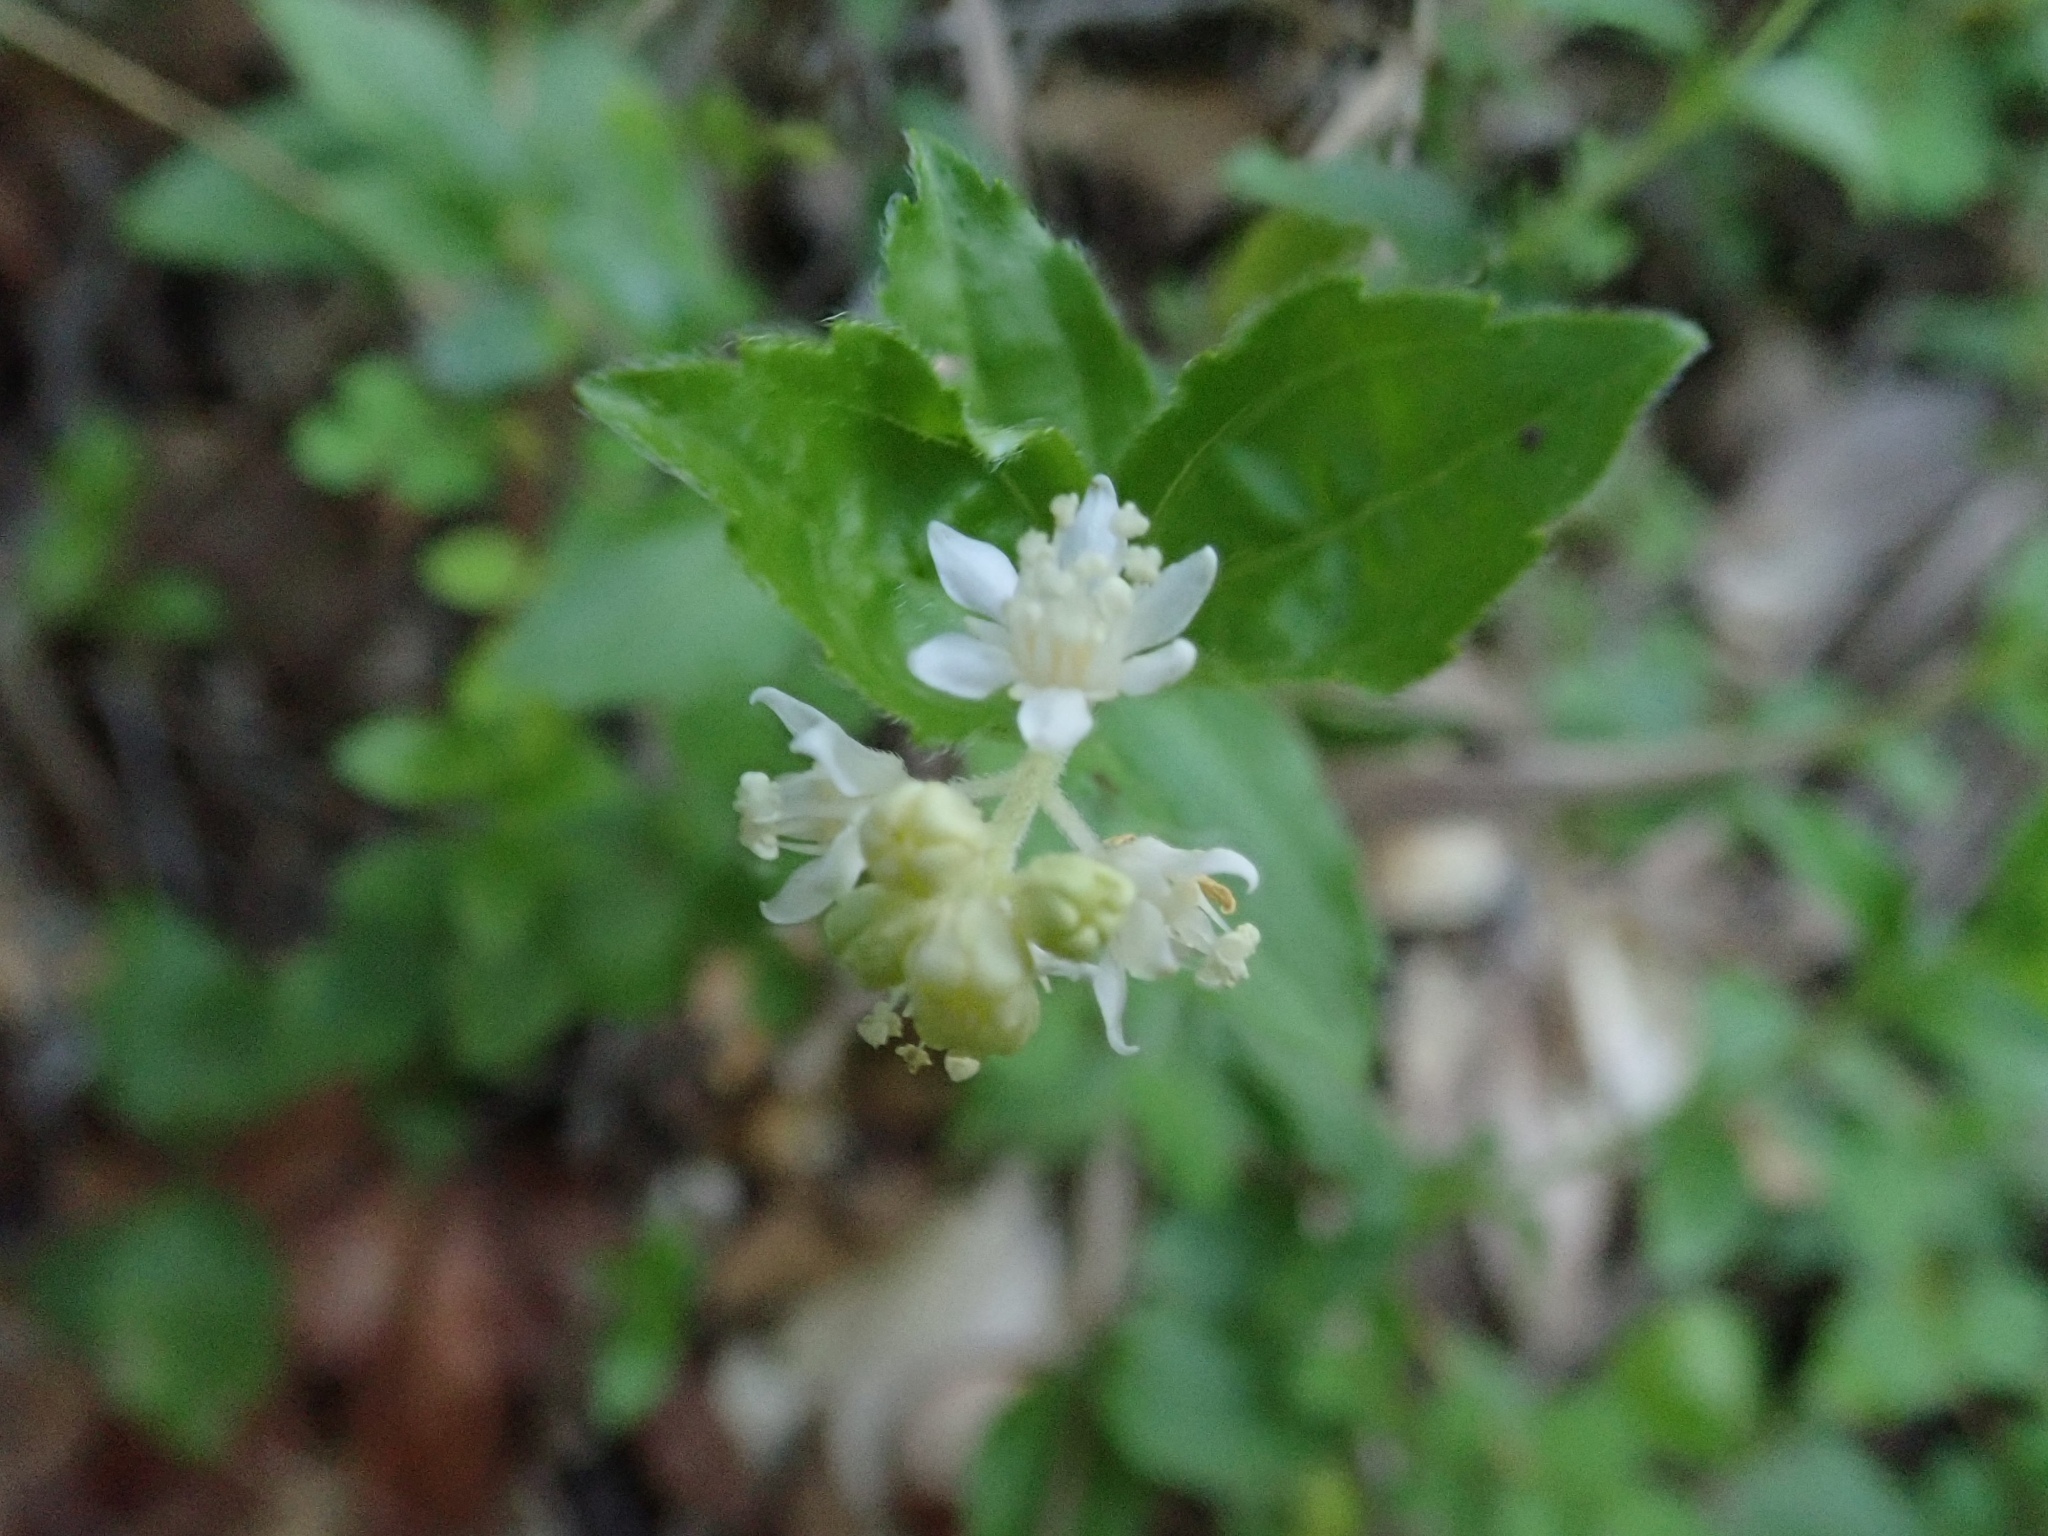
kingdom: Plantae
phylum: Tracheophyta
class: Magnoliopsida
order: Cornales
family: Hydrangeaceae
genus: Whipplea
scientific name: Whipplea modesta
